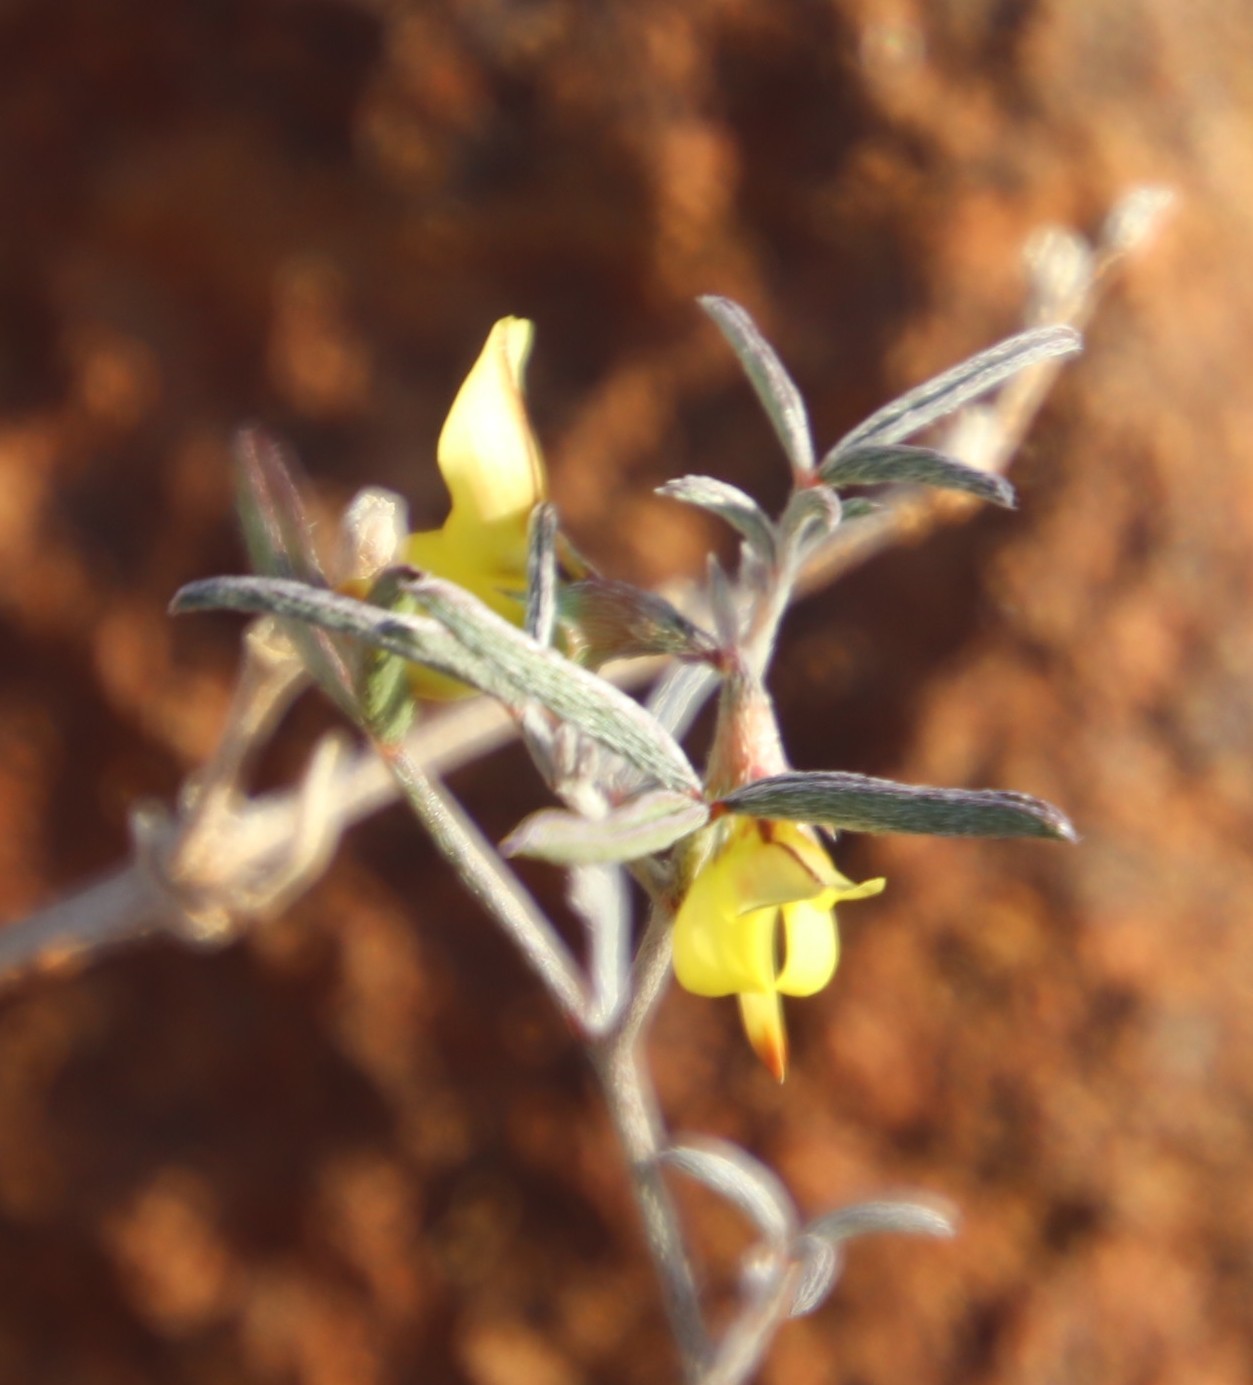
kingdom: Plantae
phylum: Tracheophyta
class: Magnoliopsida
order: Fabales
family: Fabaceae
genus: Lotononis
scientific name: Lotononis falcata
